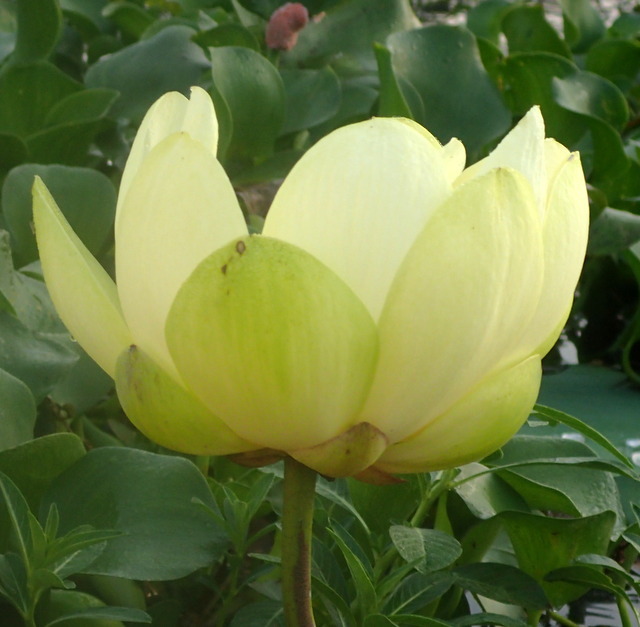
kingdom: Plantae
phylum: Tracheophyta
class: Magnoliopsida
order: Proteales
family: Nelumbonaceae
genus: Nelumbo
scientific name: Nelumbo lutea
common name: American lotus
